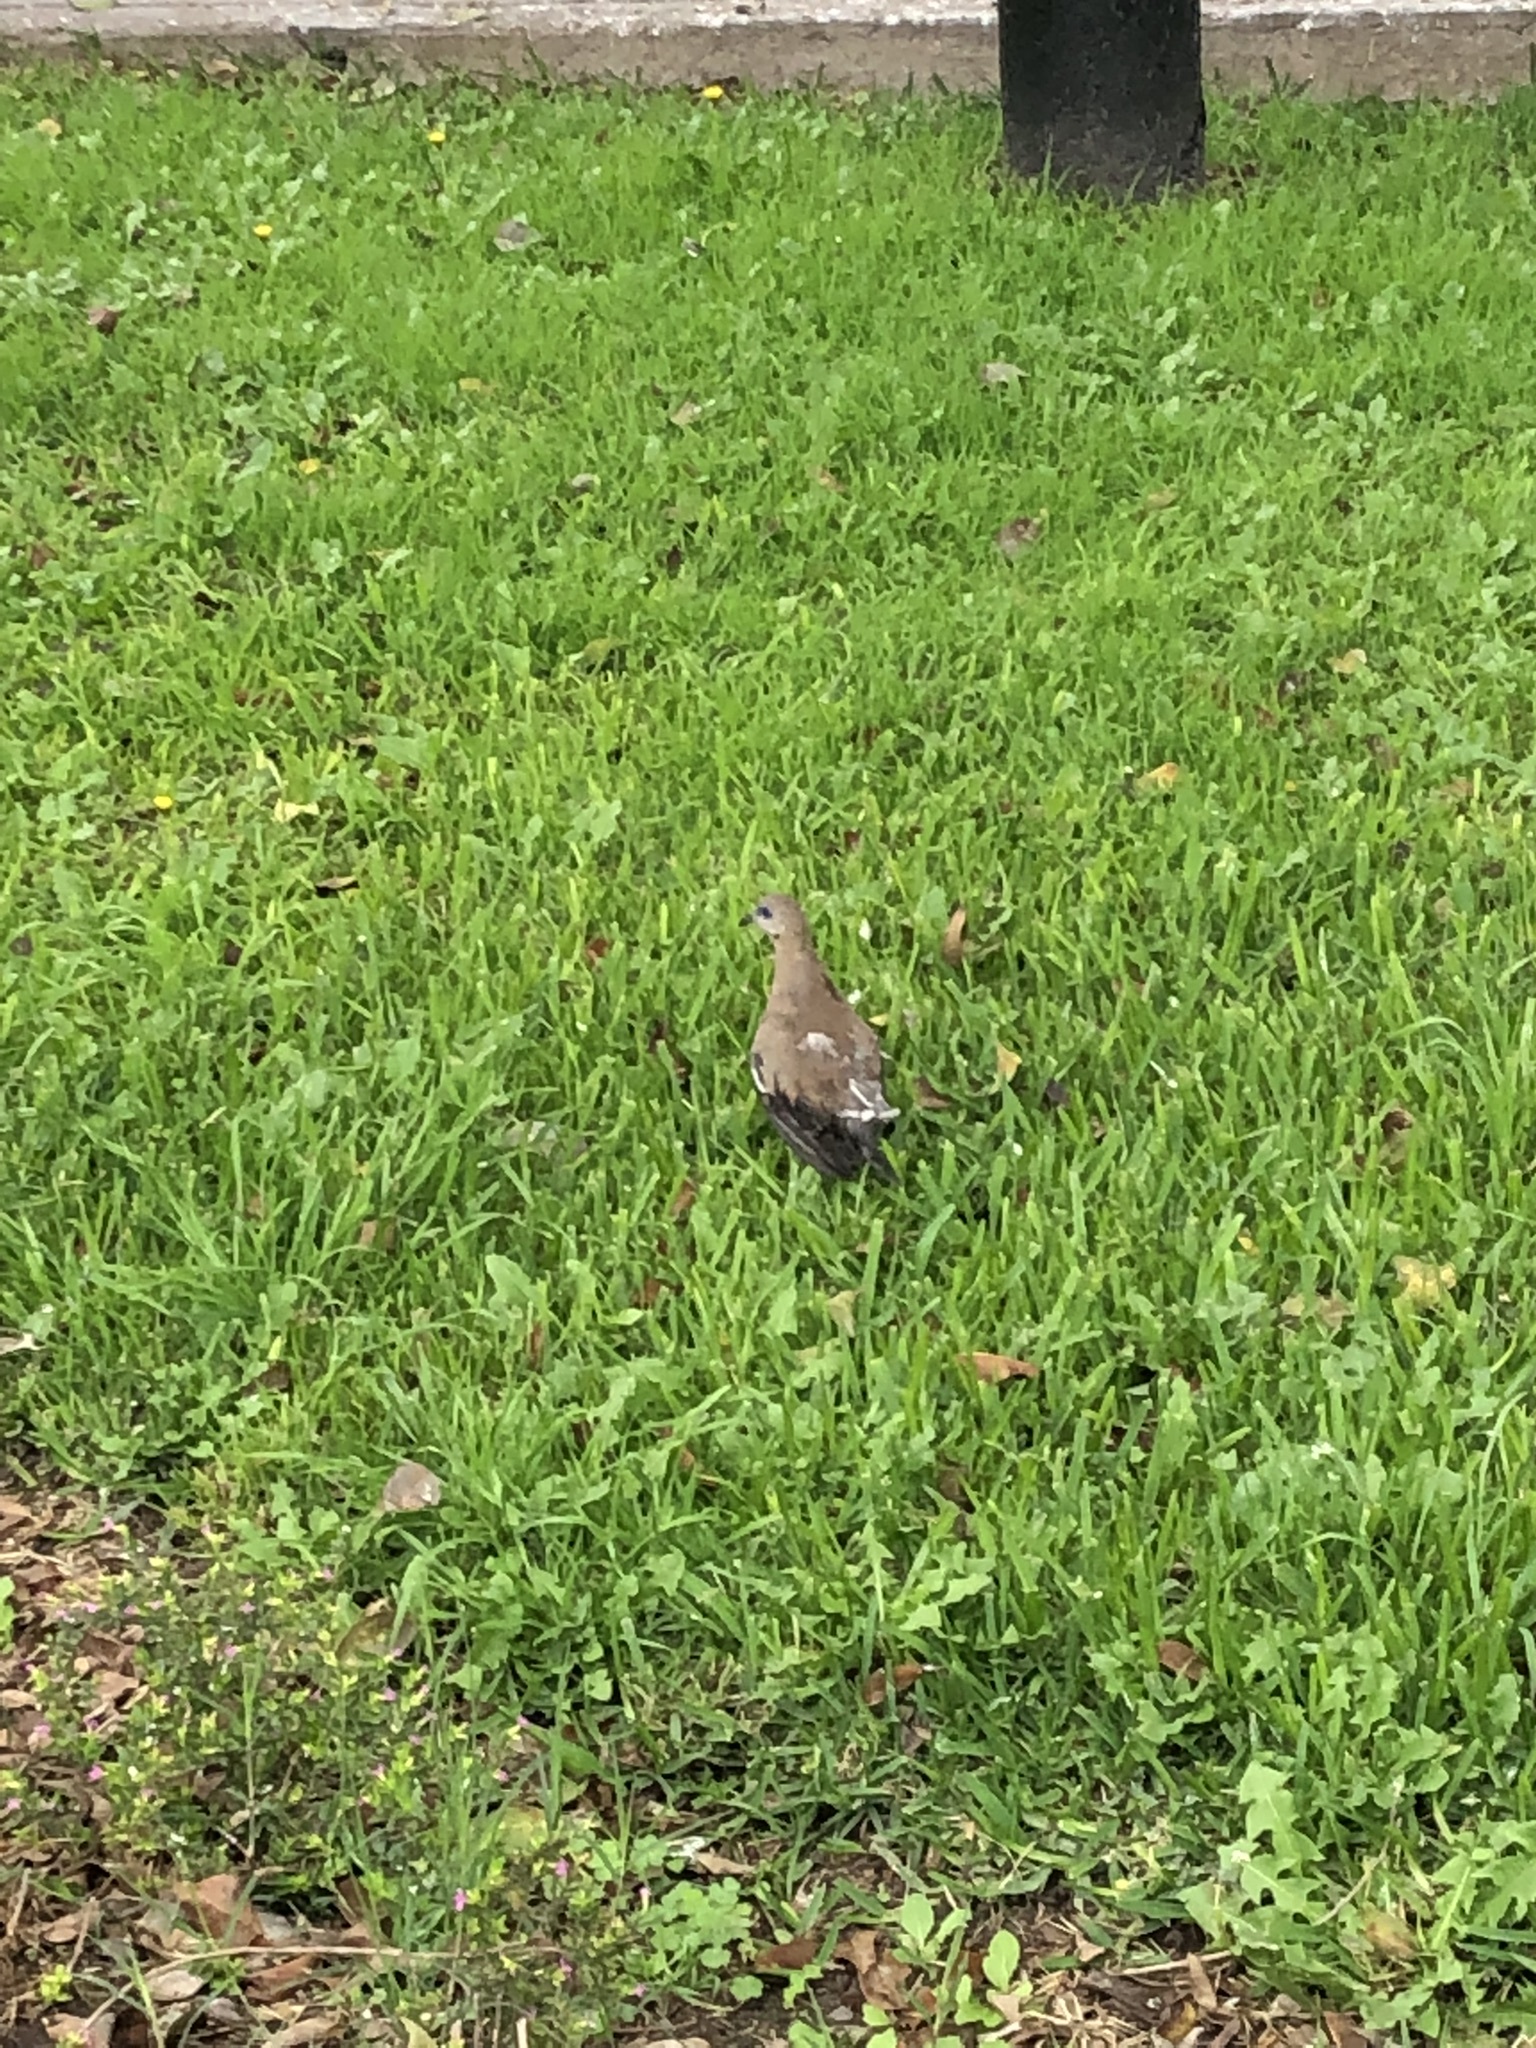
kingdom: Animalia
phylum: Chordata
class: Aves
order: Columbiformes
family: Columbidae
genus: Zenaida
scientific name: Zenaida meloda
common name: West peruvian dove
